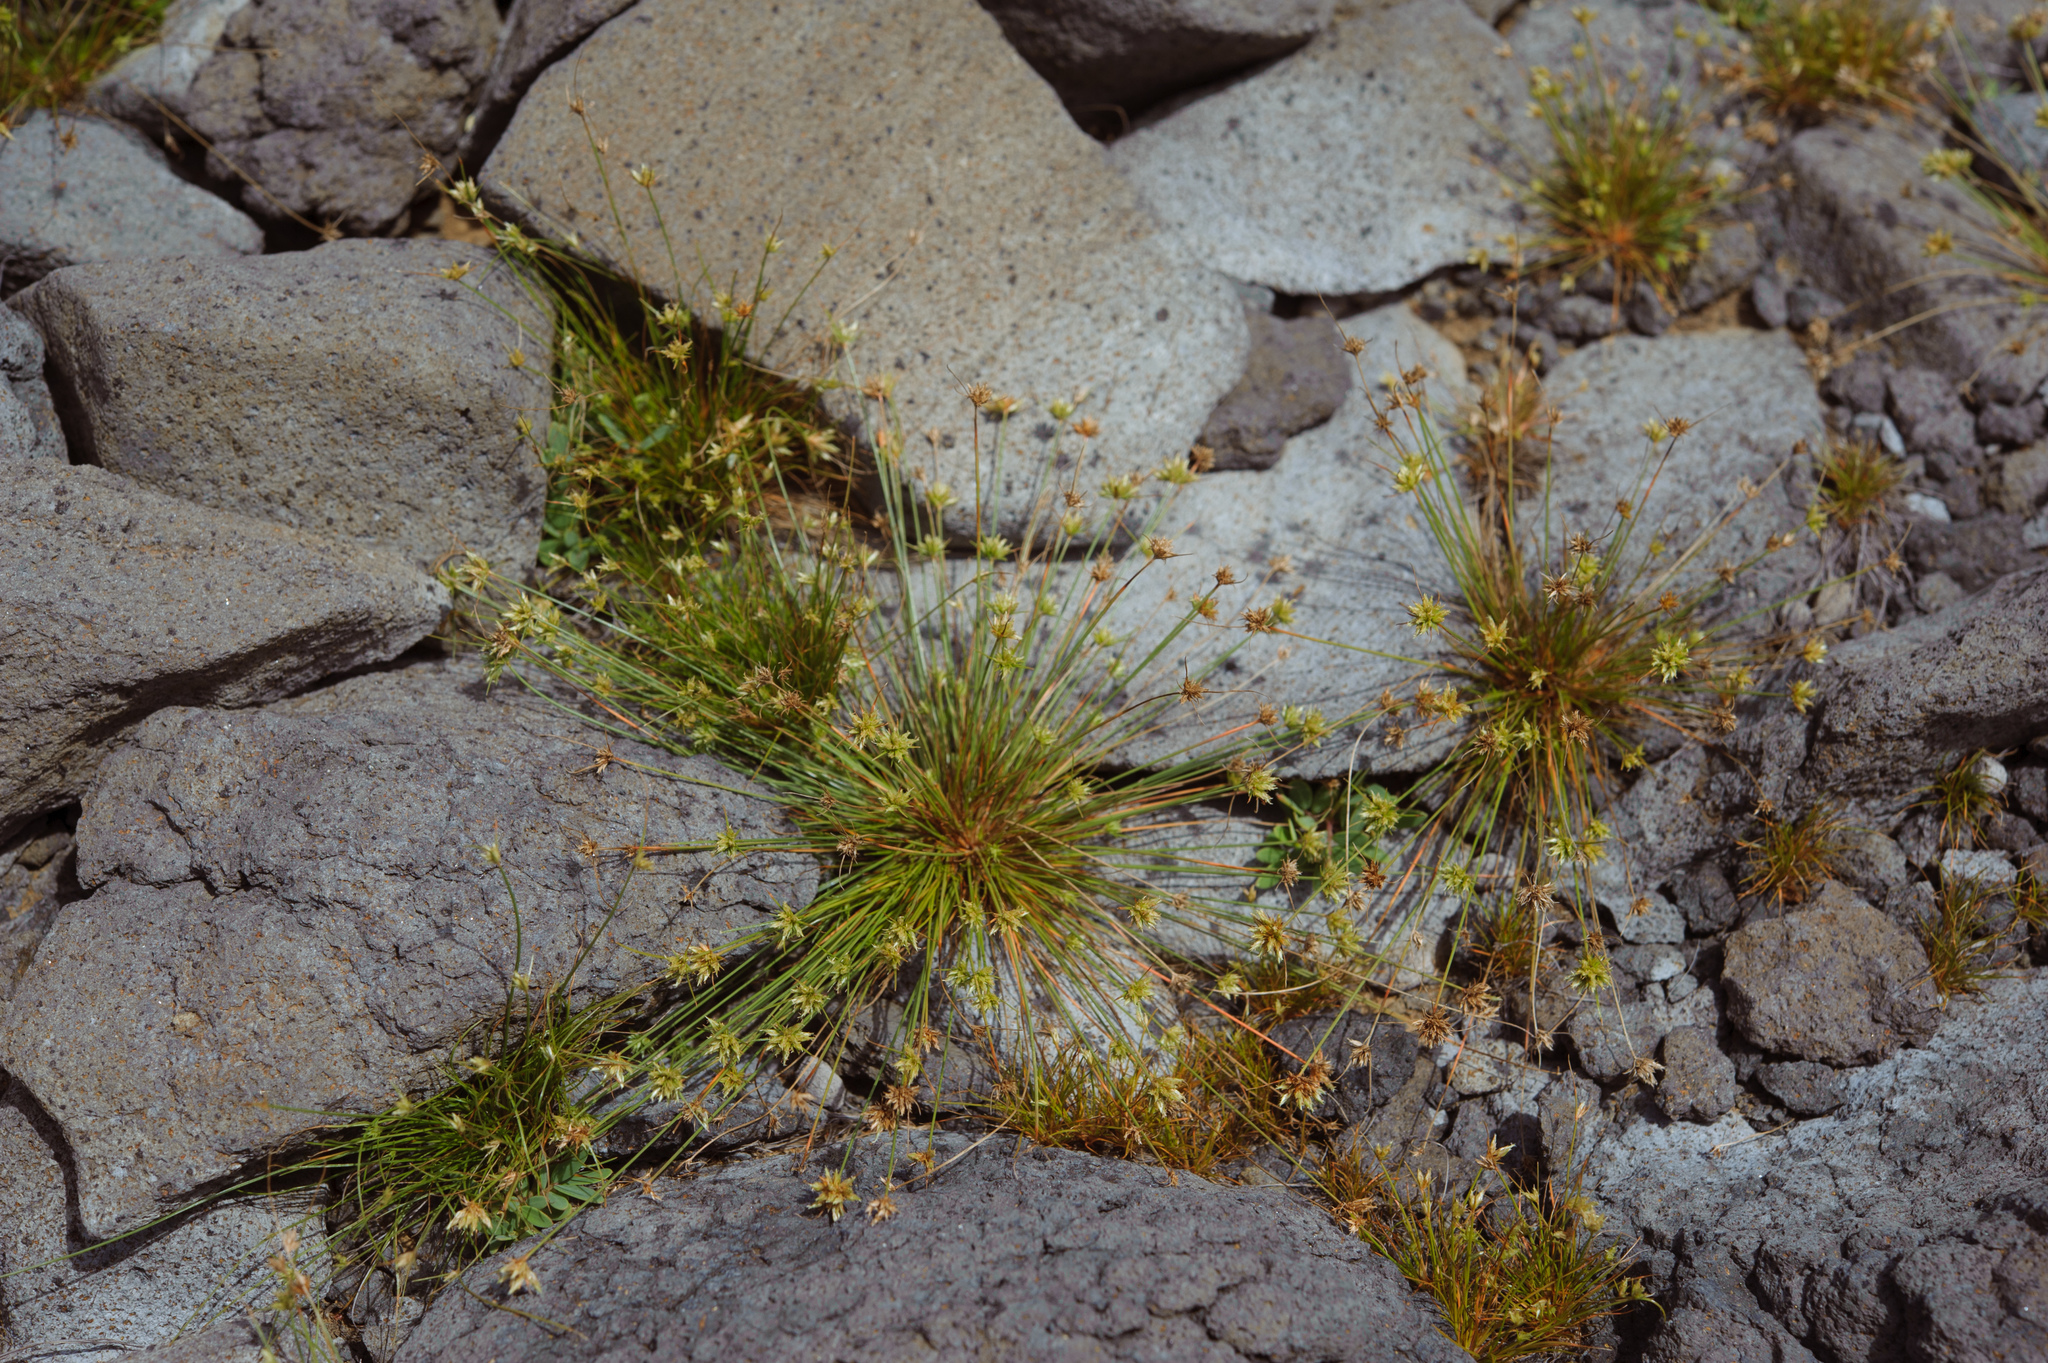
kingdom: Plantae
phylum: Tracheophyta
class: Liliopsida
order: Poales
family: Cyperaceae
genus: Bulbostylis
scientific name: Bulbostylis barbata
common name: Watergrass
